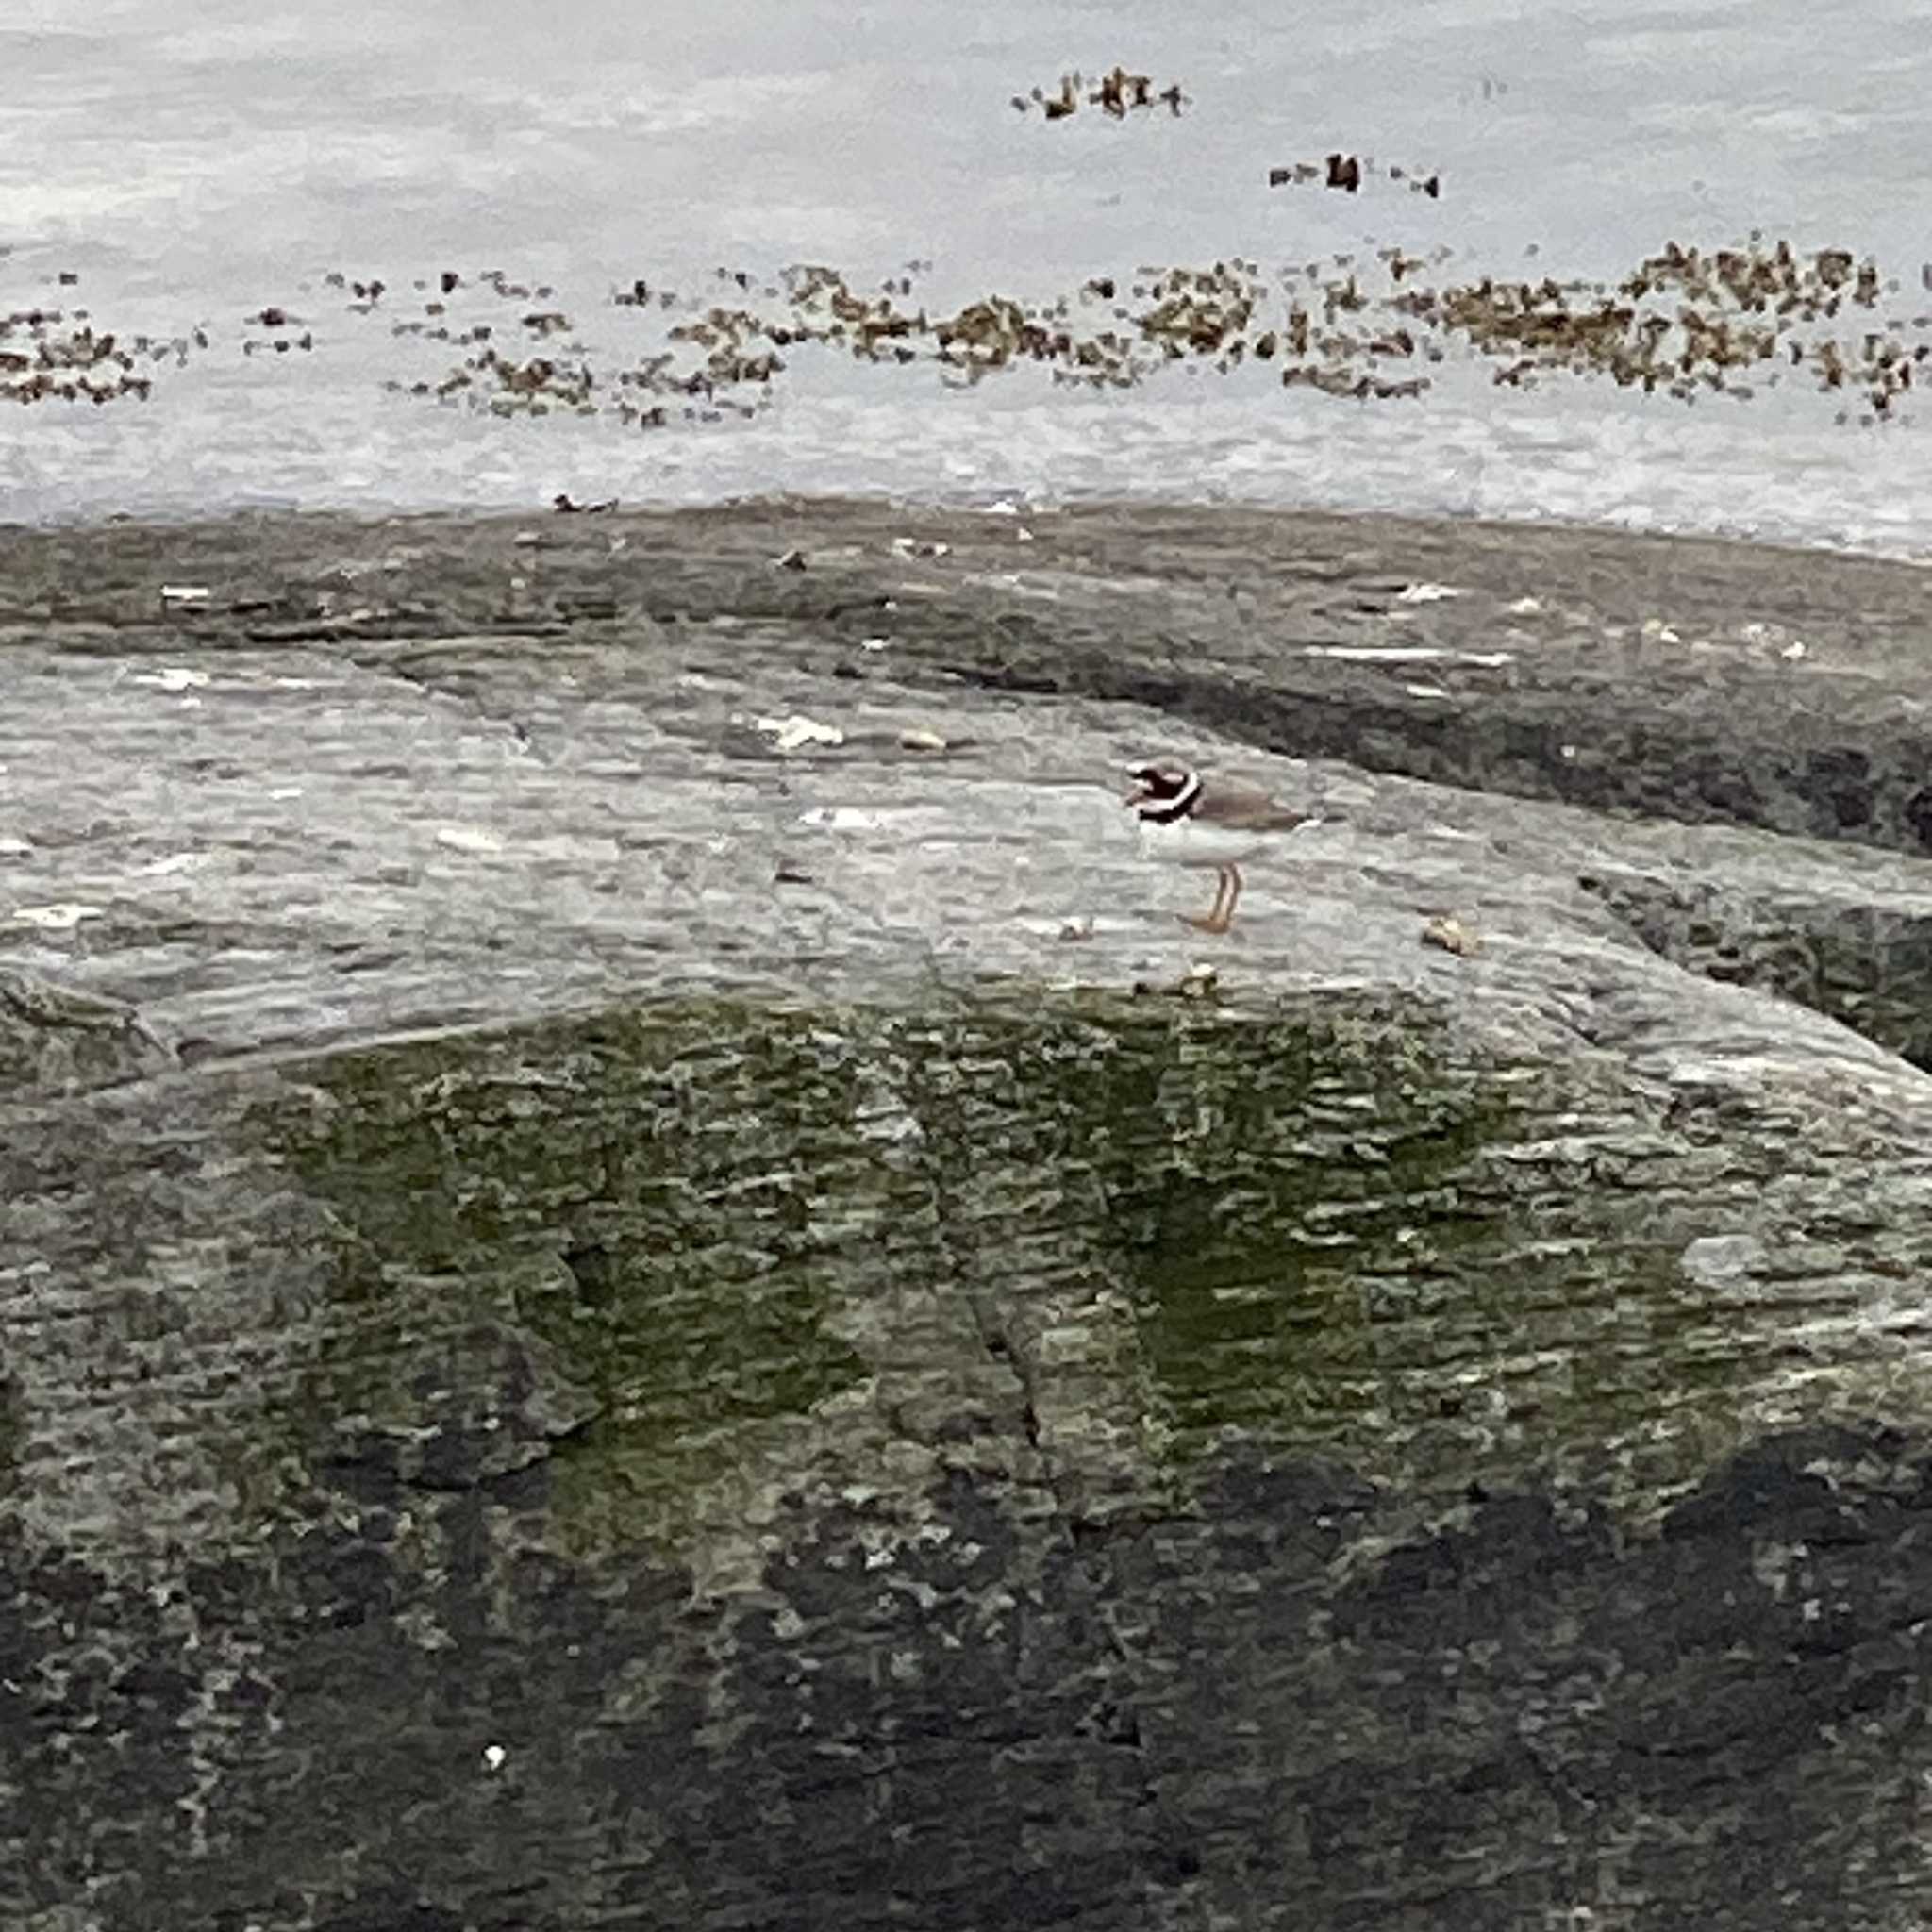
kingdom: Animalia
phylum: Chordata
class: Aves
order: Charadriiformes
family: Charadriidae
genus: Charadrius
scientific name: Charadrius hiaticula
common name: Common ringed plover
